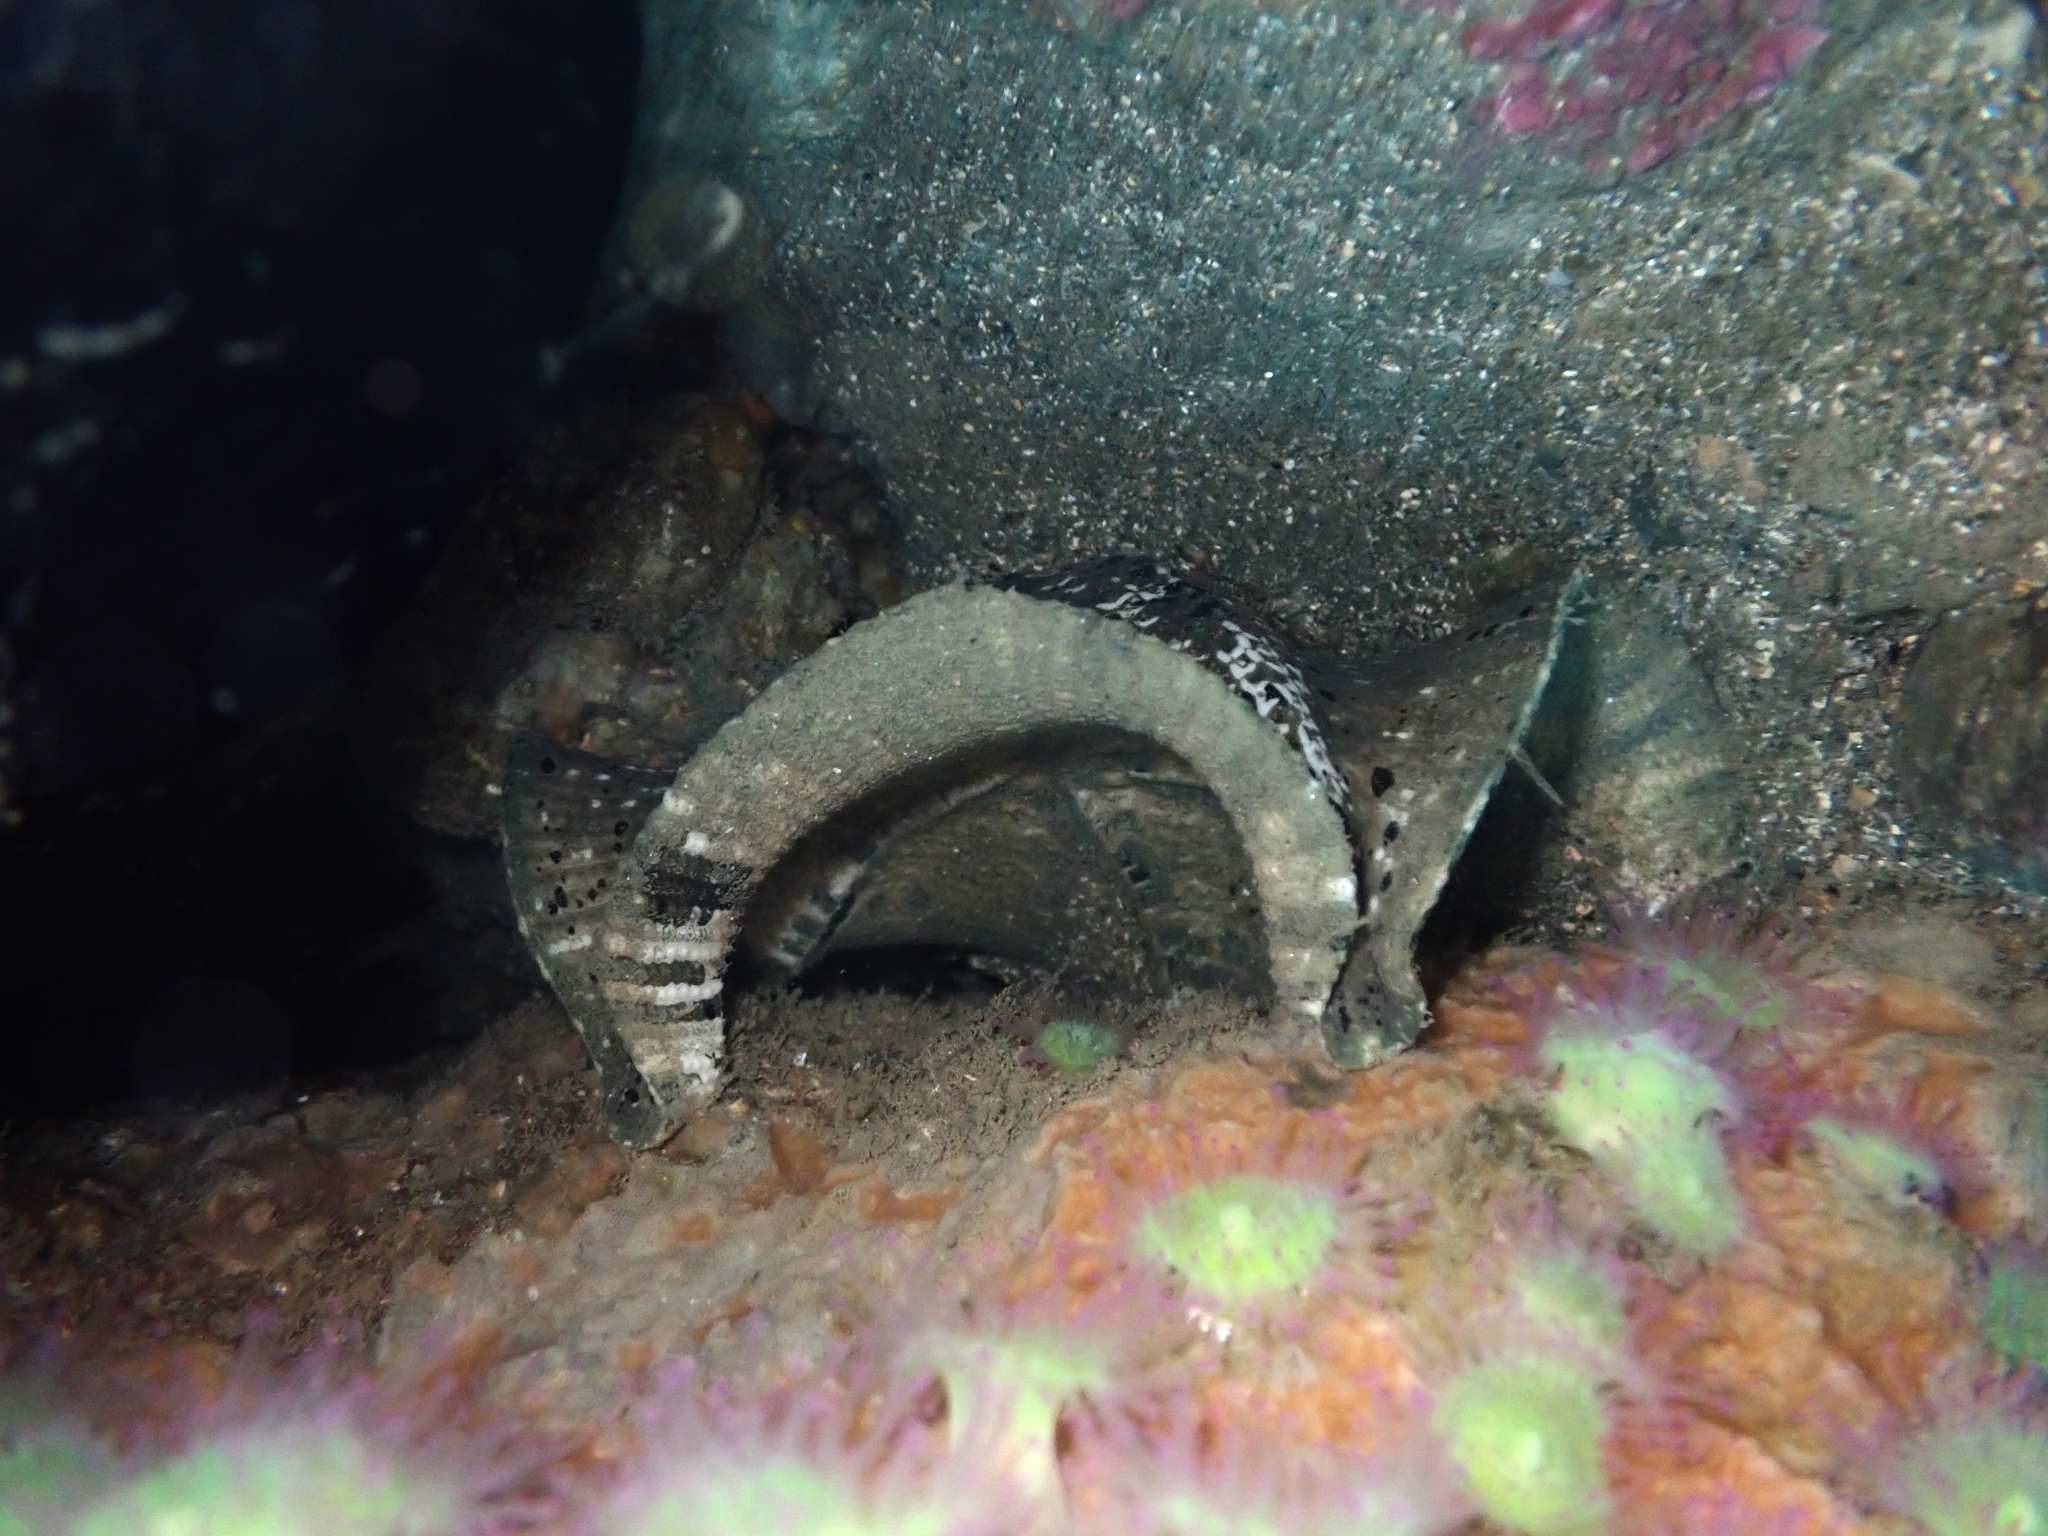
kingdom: Animalia
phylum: Echinodermata
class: Asteroidea
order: Valvatida
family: Asterinidae
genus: Stegnaster
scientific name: Stegnaster inflatus
